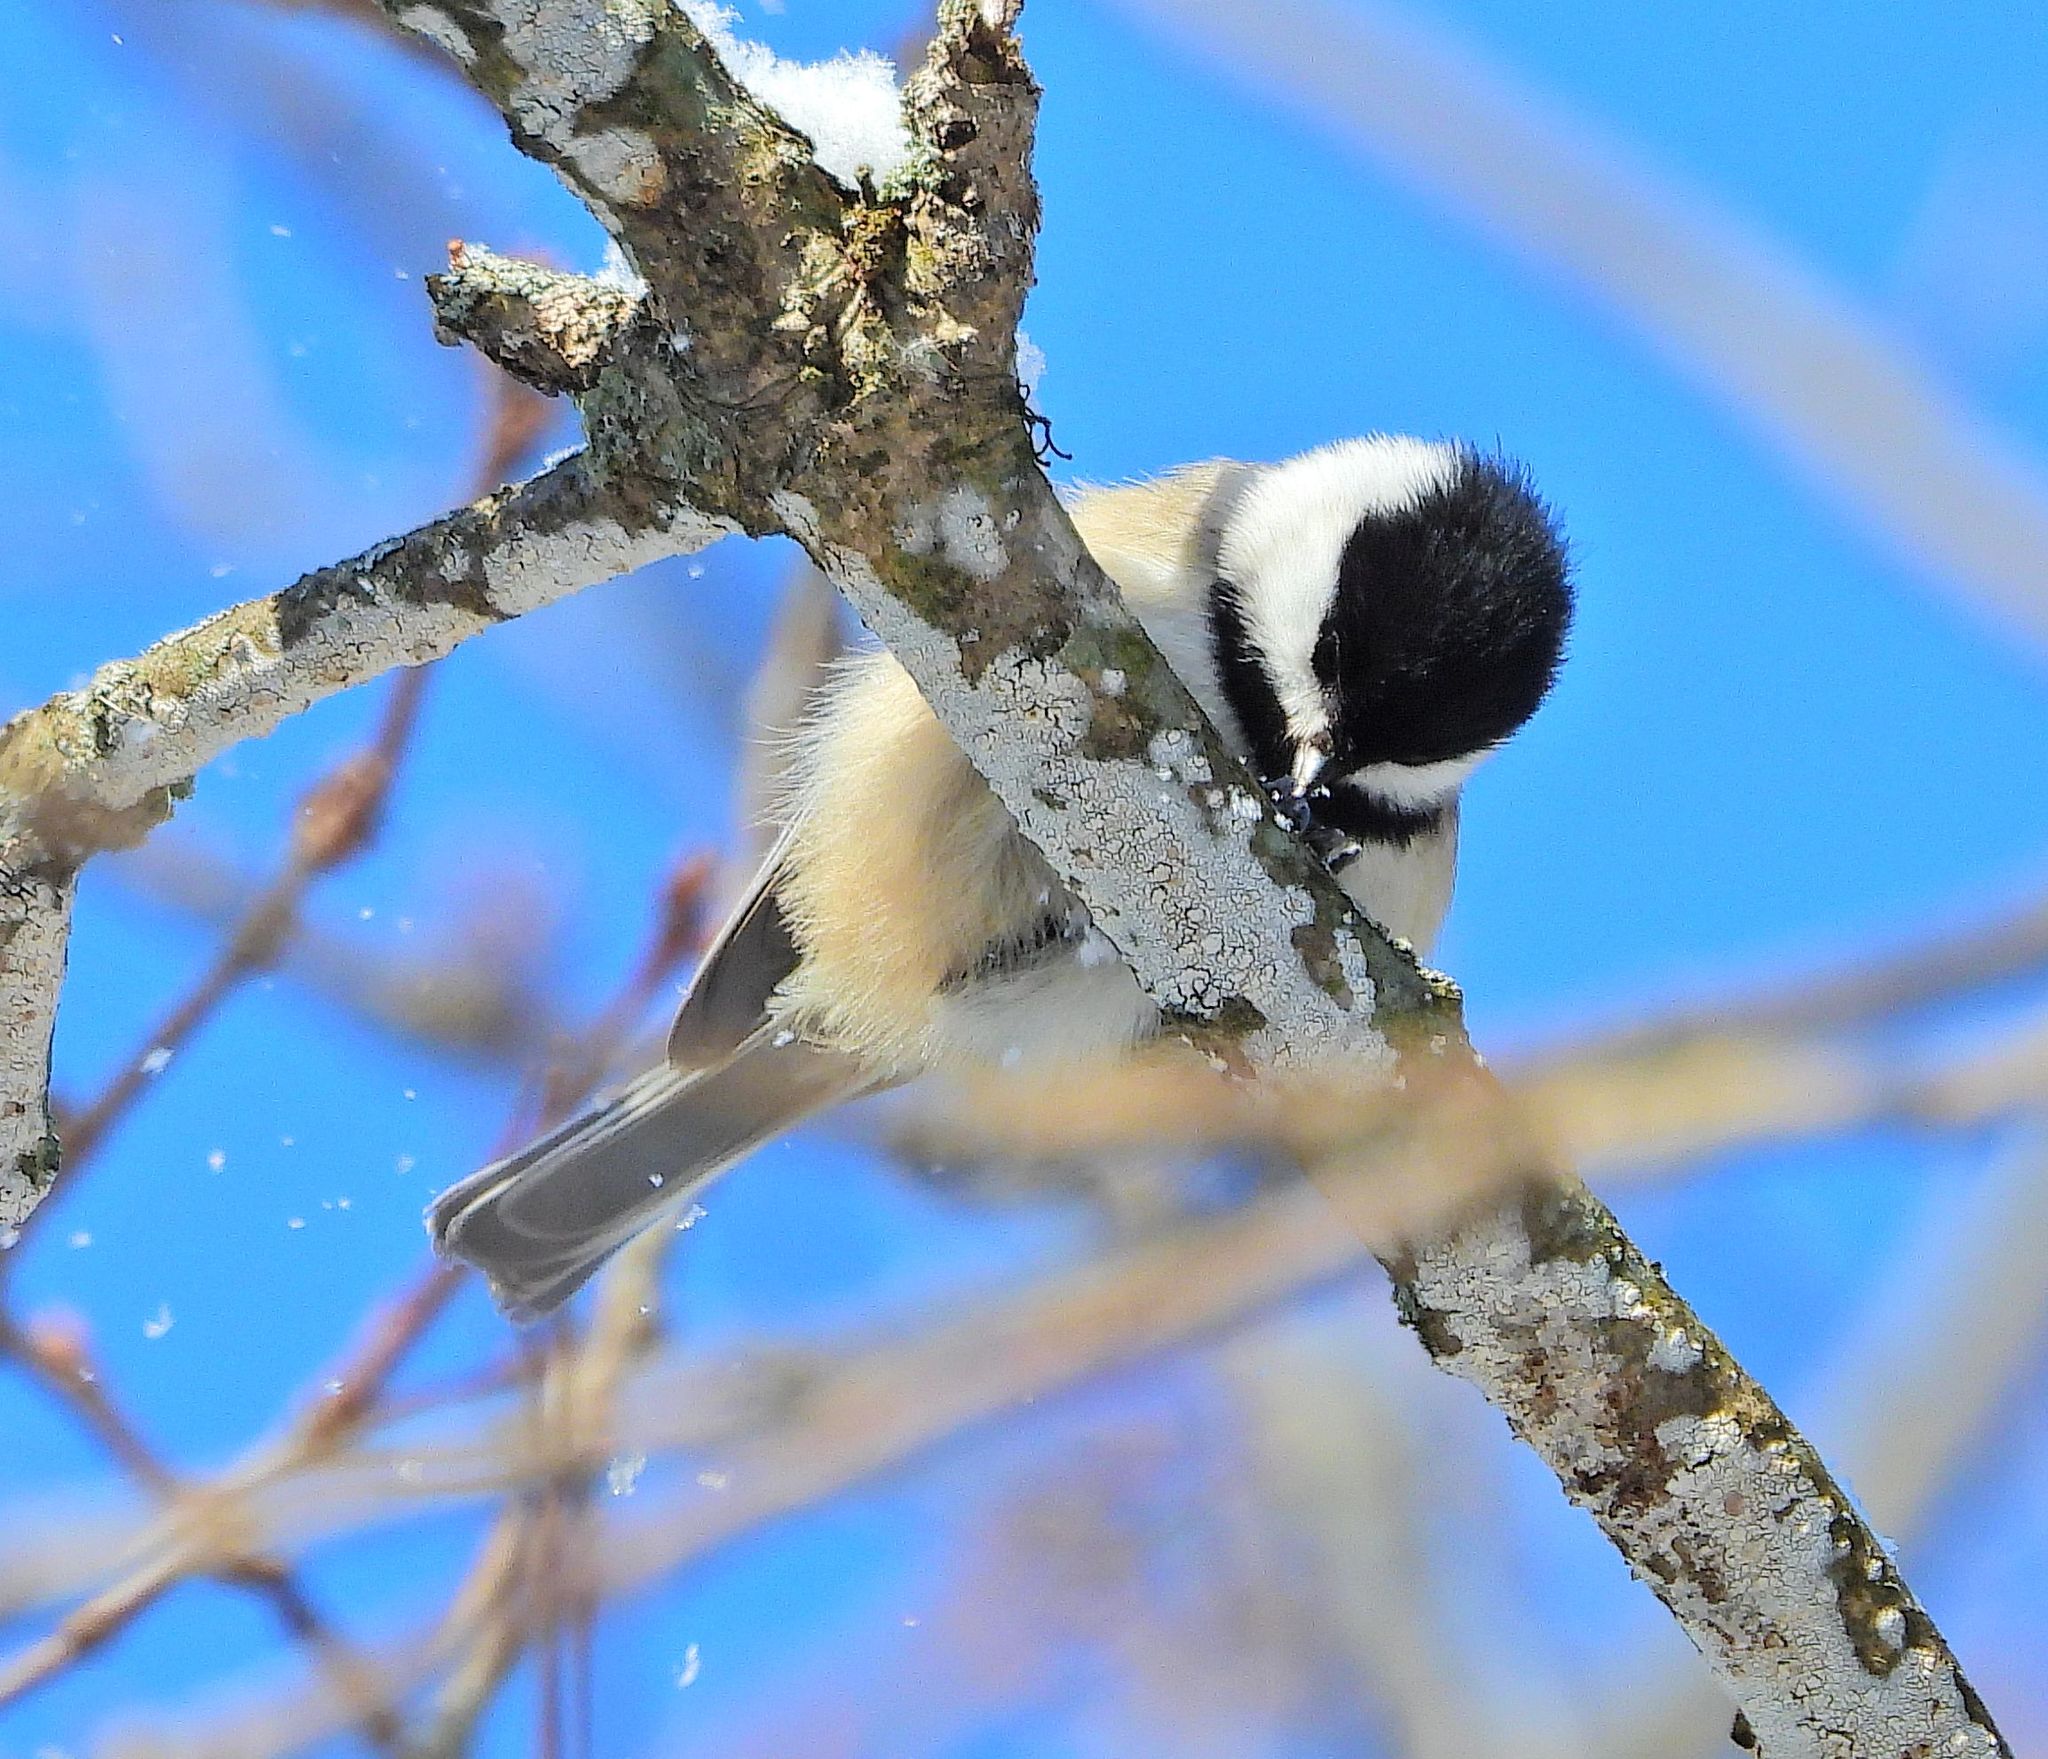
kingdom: Animalia
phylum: Chordata
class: Aves
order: Passeriformes
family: Paridae
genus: Poecile
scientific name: Poecile atricapillus
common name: Black-capped chickadee
